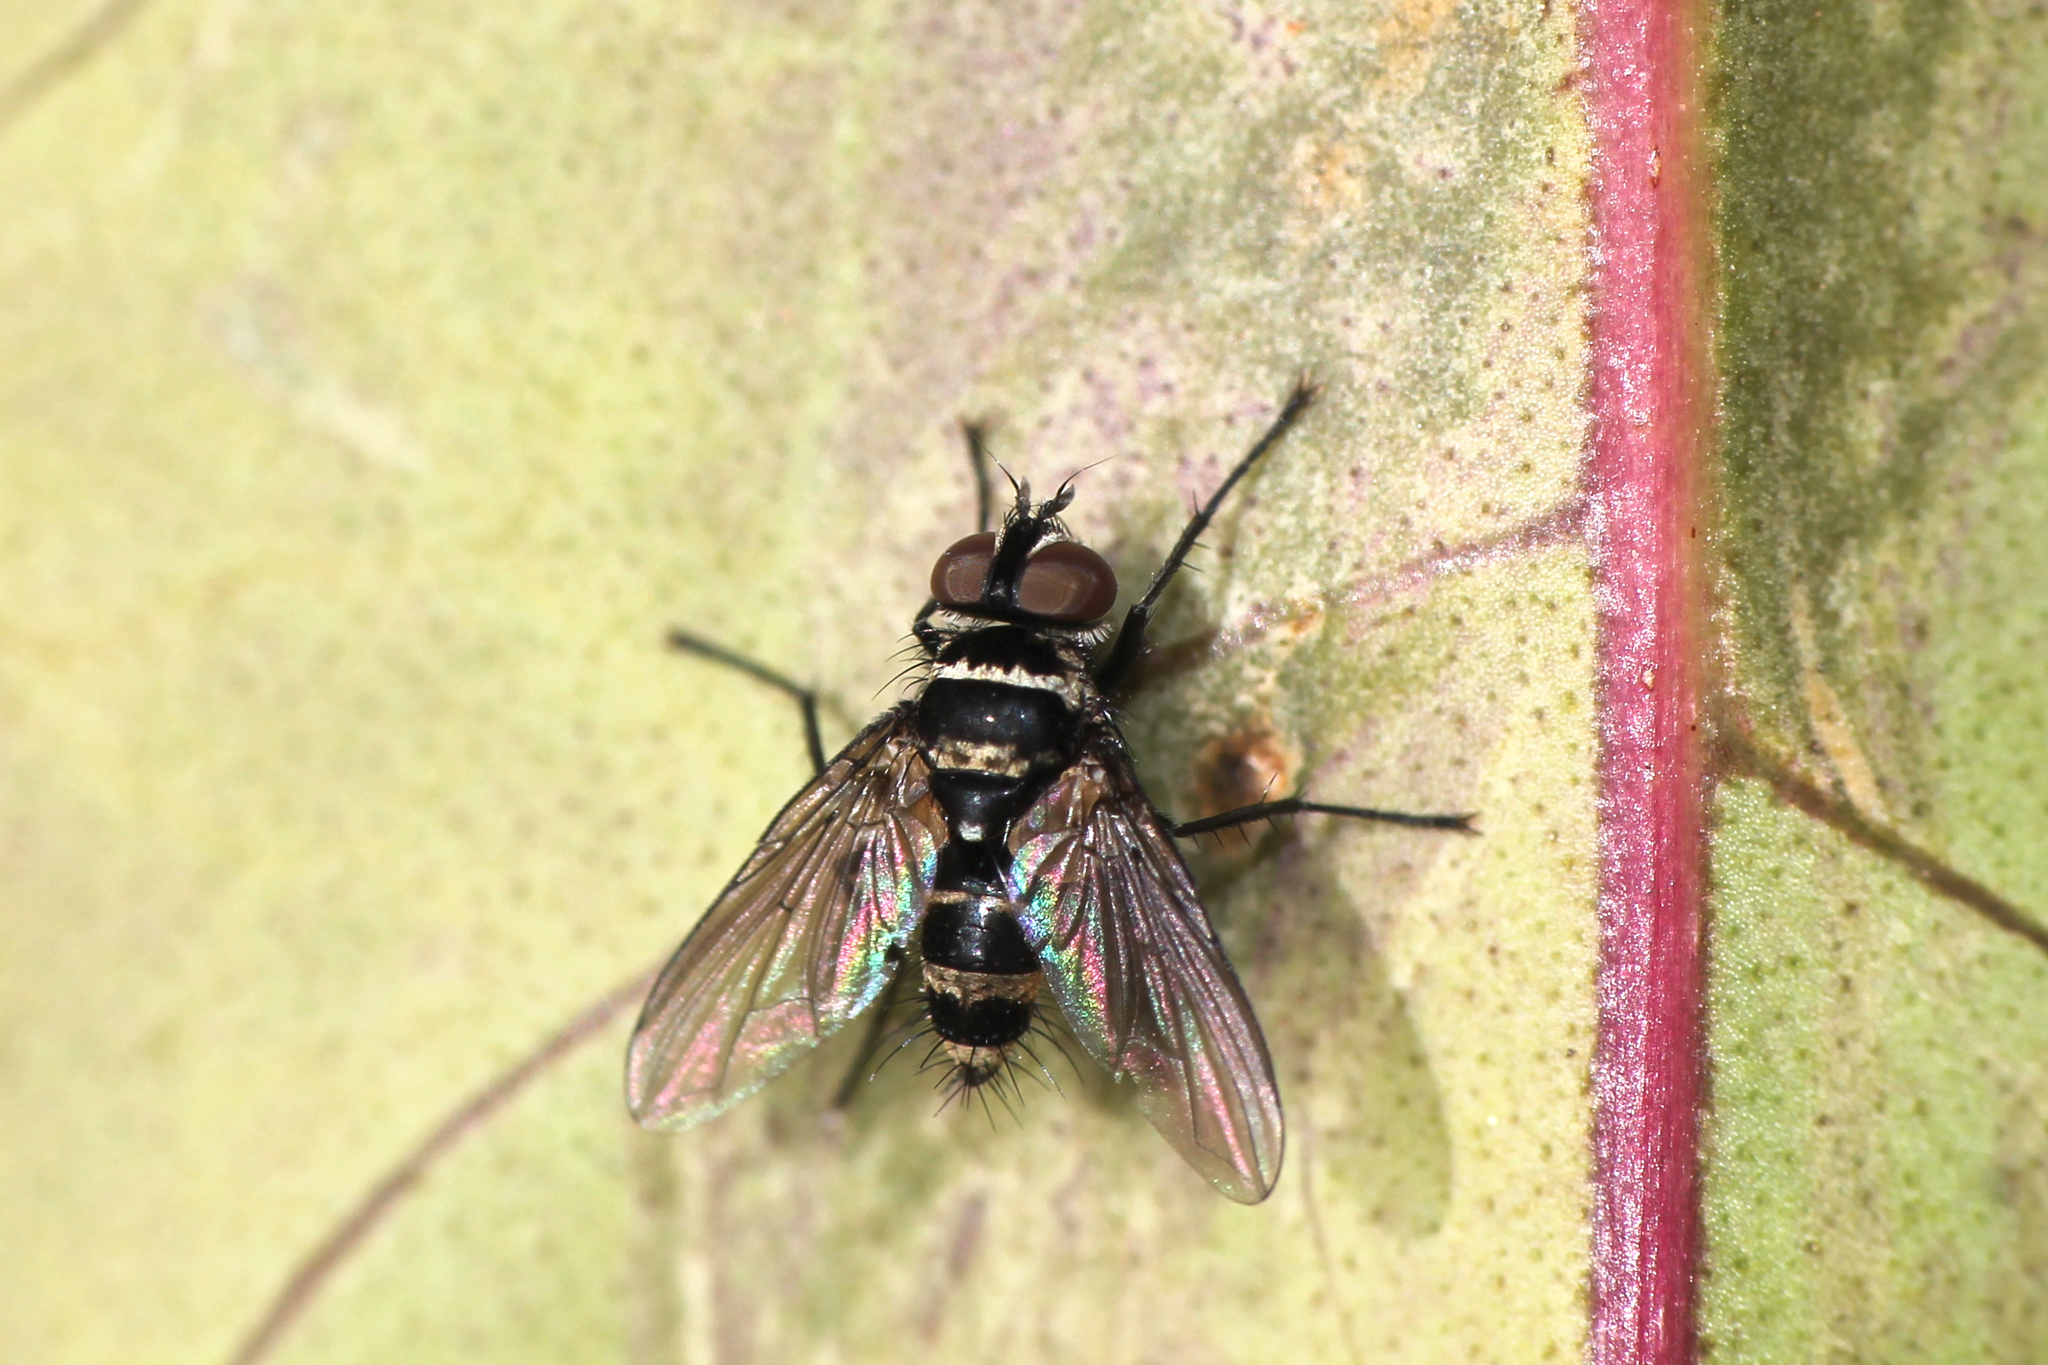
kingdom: Animalia
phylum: Arthropoda
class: Insecta
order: Diptera
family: Tachinidae
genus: Trigonospila
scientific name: Trigonospila brevifacies
